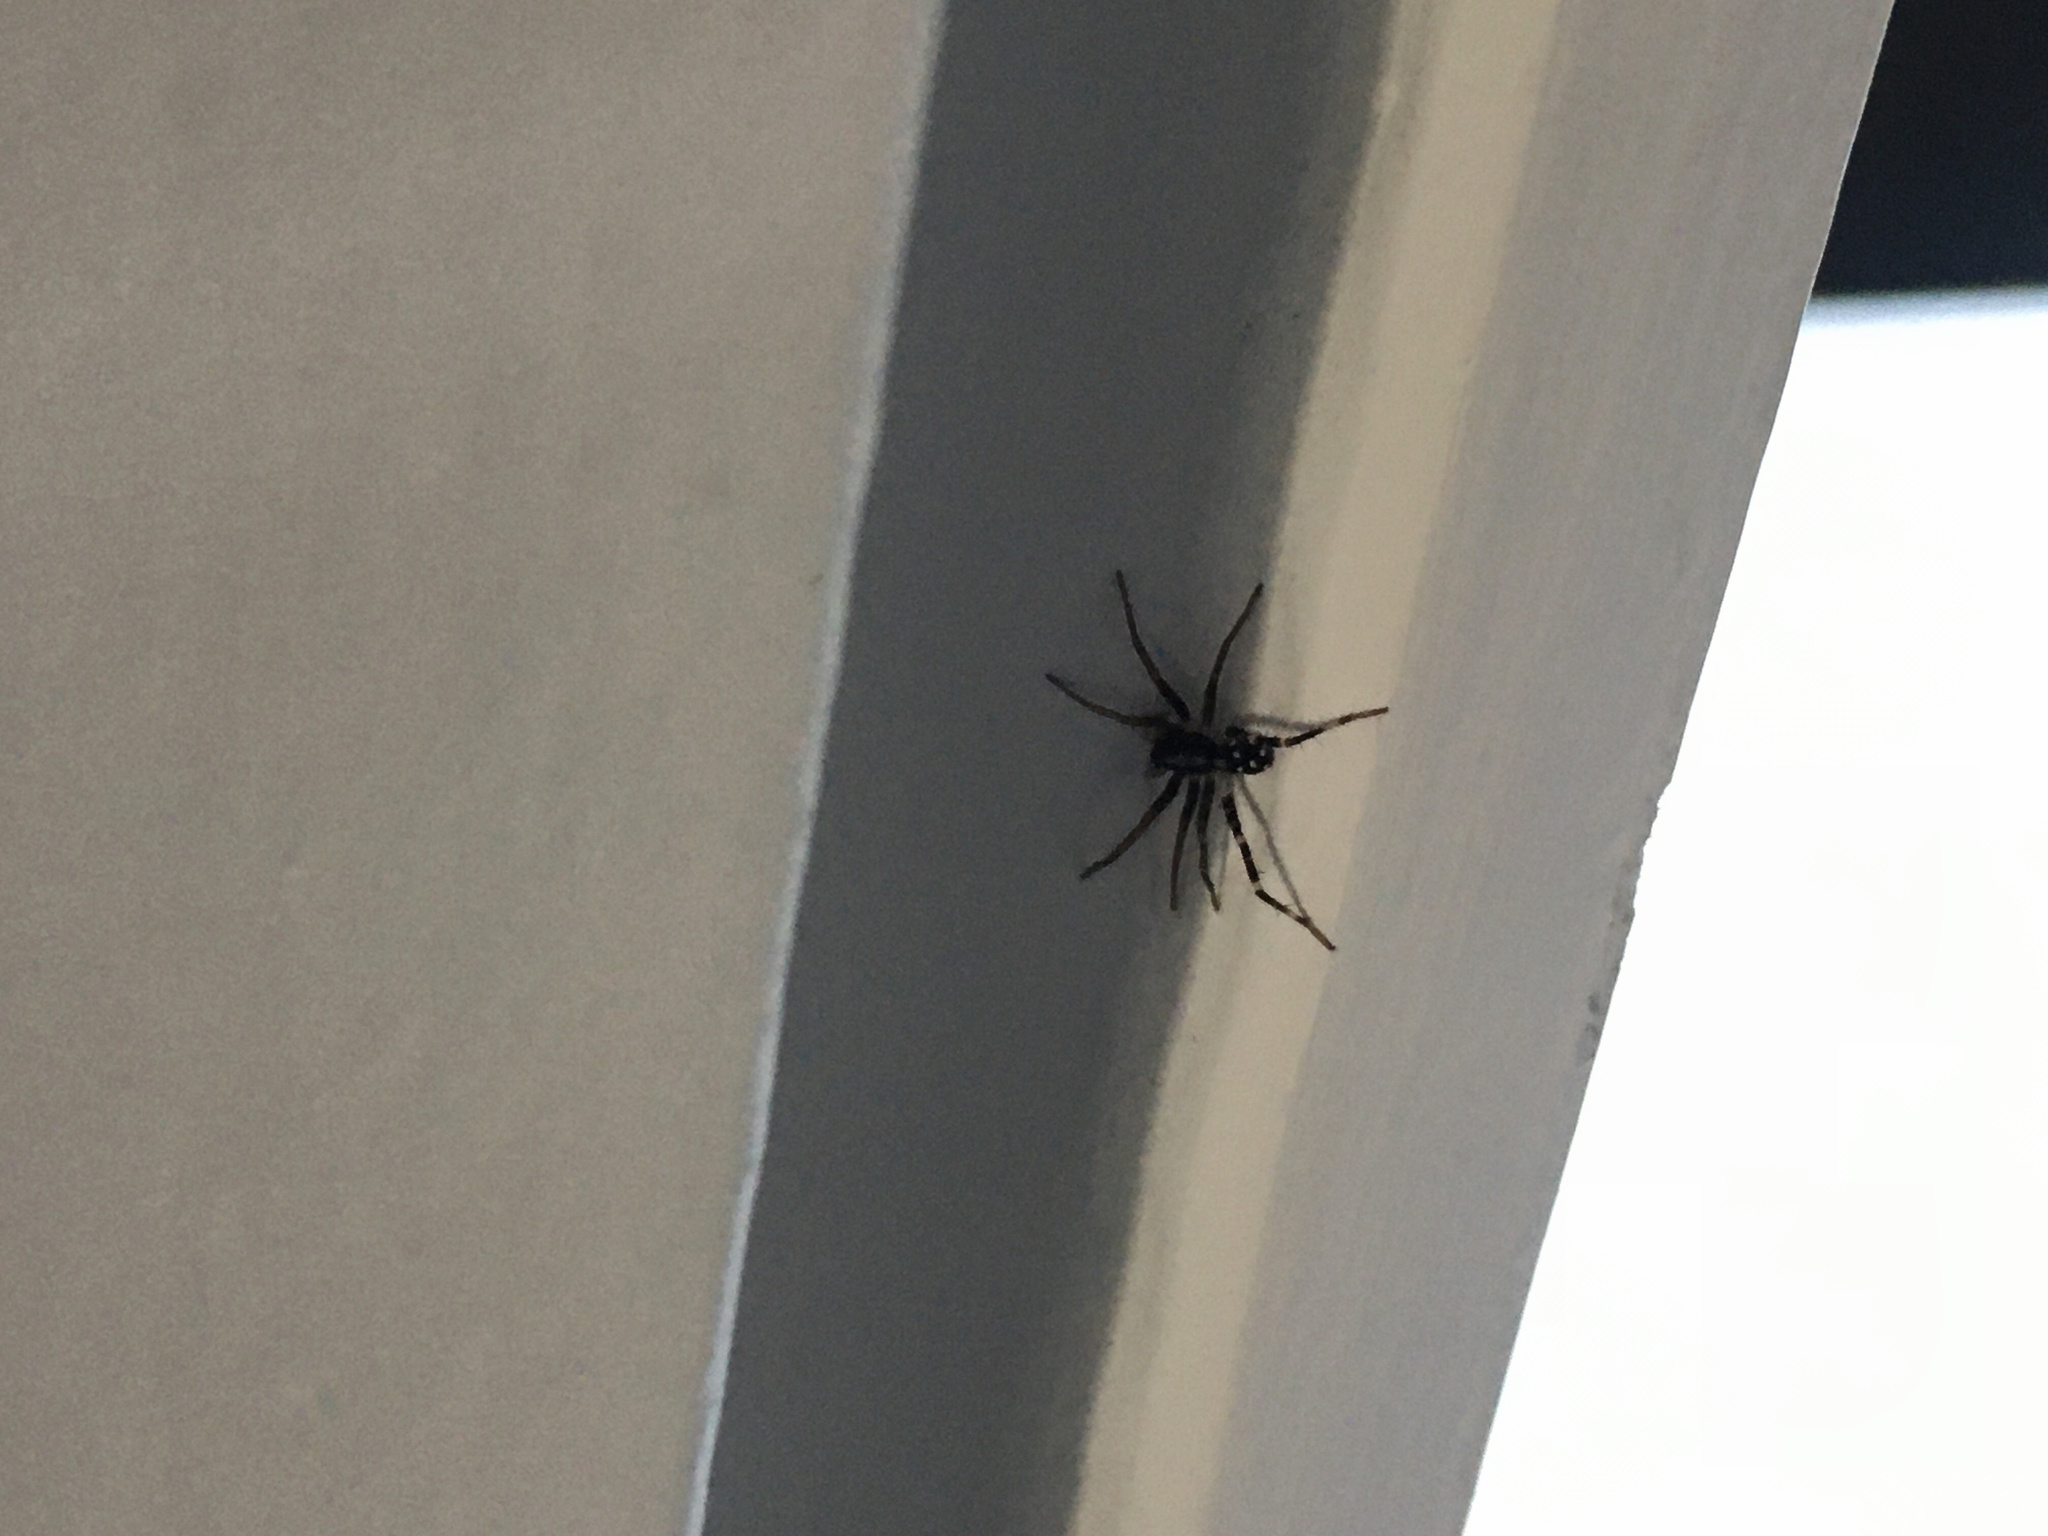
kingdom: Animalia
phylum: Arthropoda
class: Arachnida
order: Araneae
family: Corinnidae
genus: Nyssus
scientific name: Nyssus coloripes
